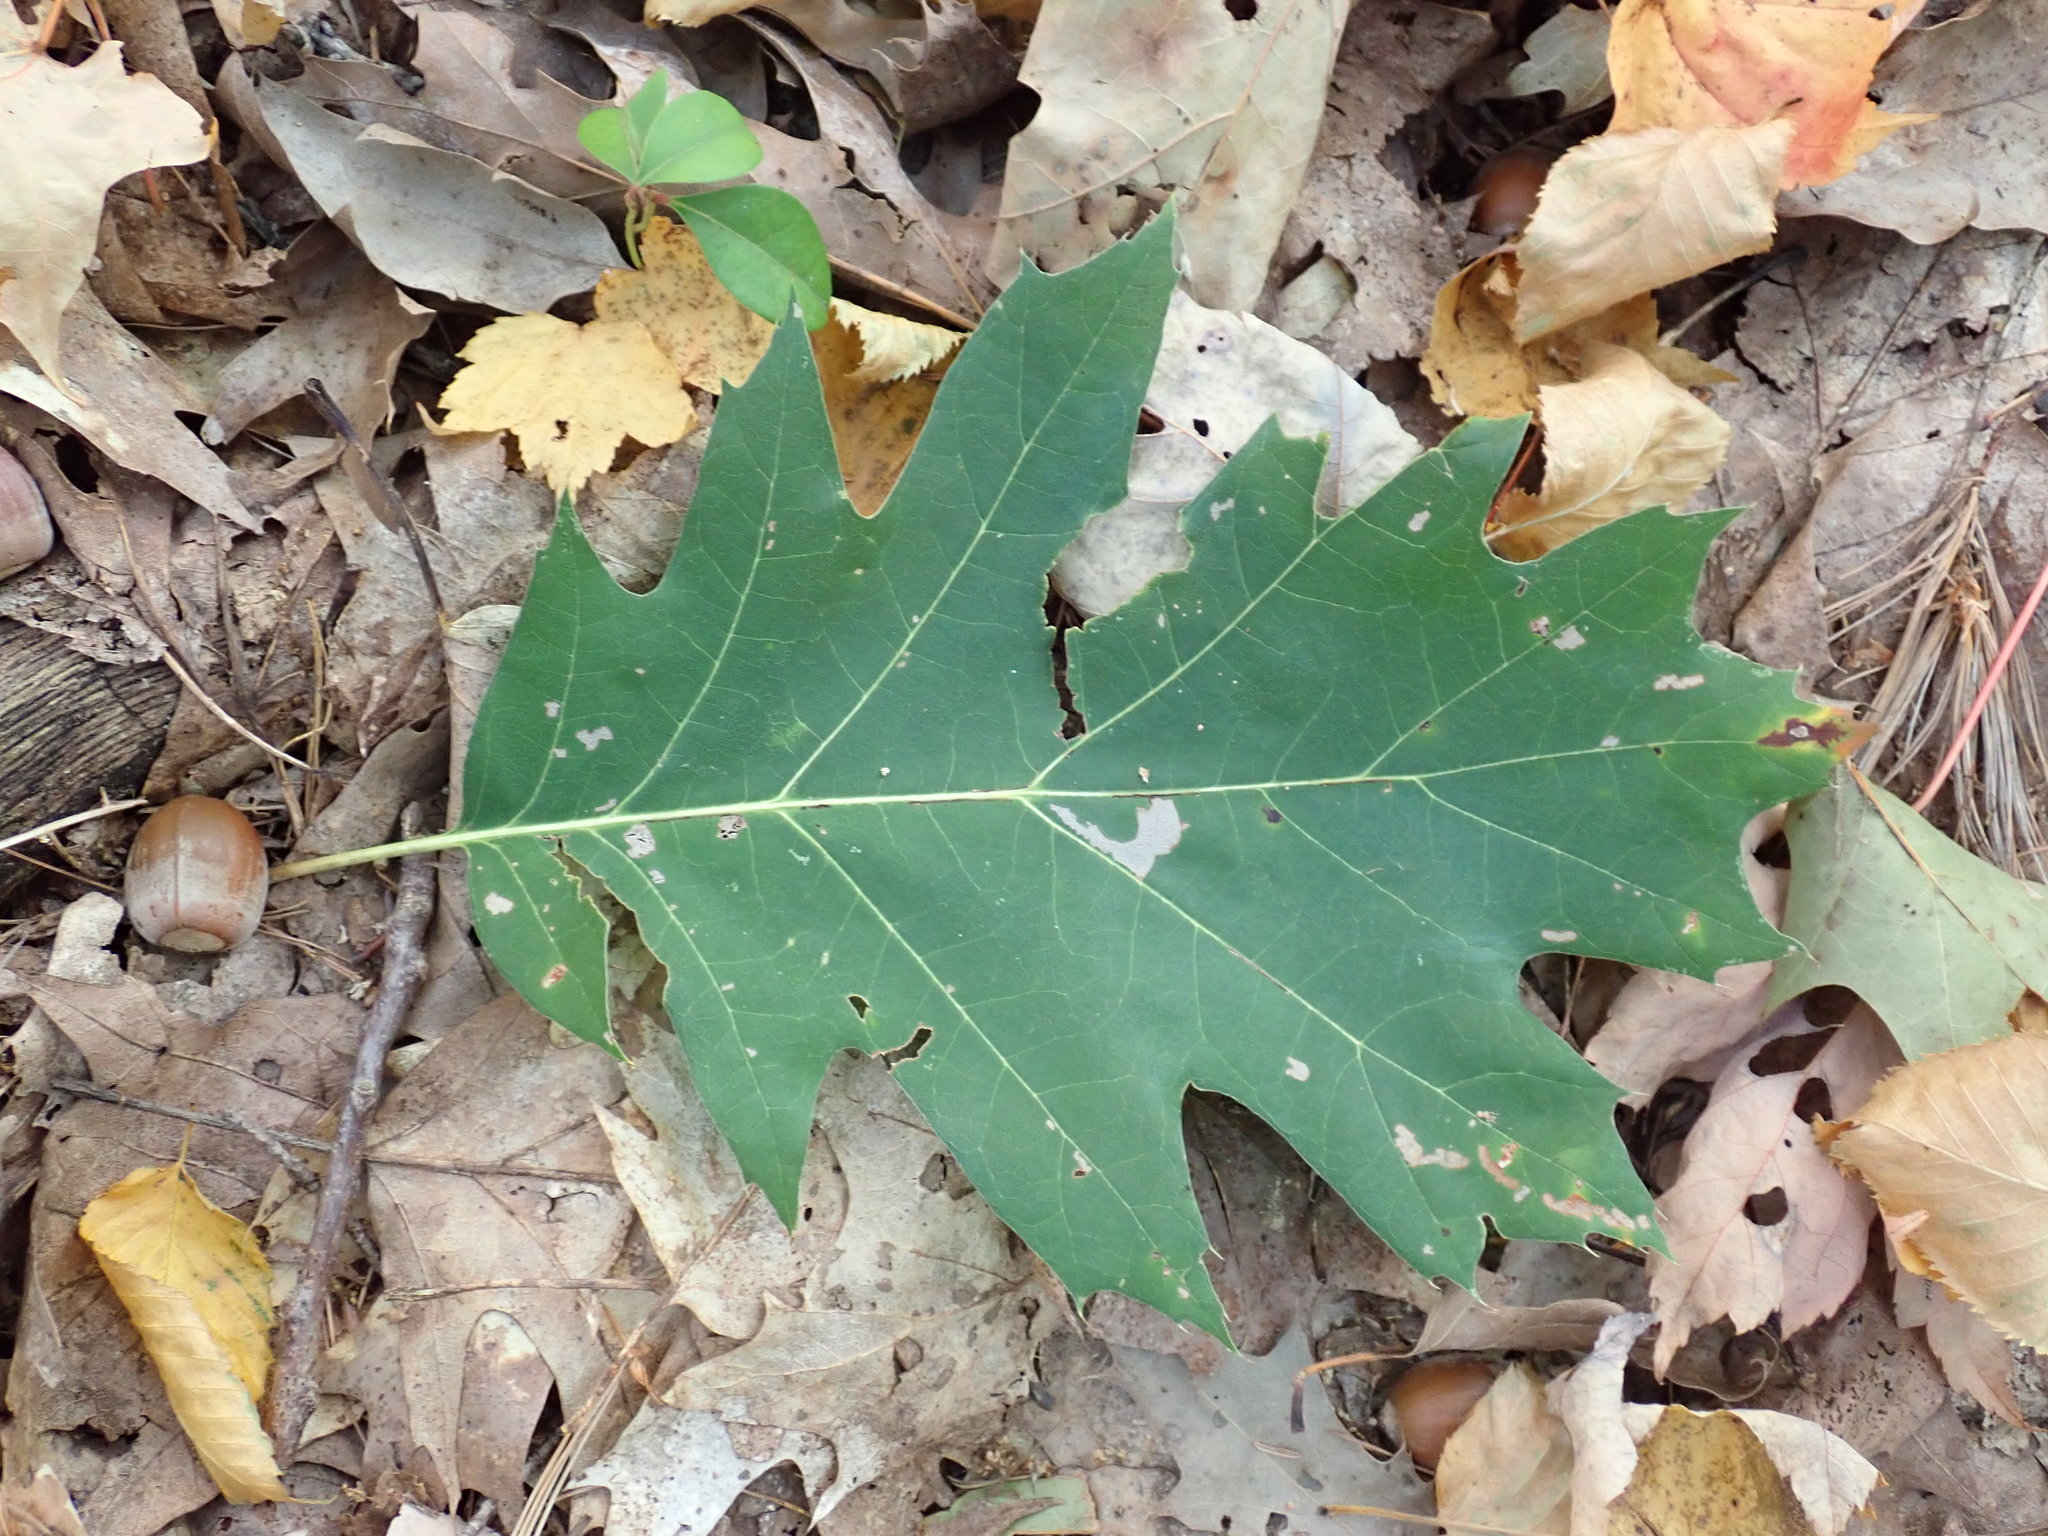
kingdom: Plantae
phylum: Tracheophyta
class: Magnoliopsida
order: Fagales
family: Fagaceae
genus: Quercus
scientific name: Quercus rubra
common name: Red oak
